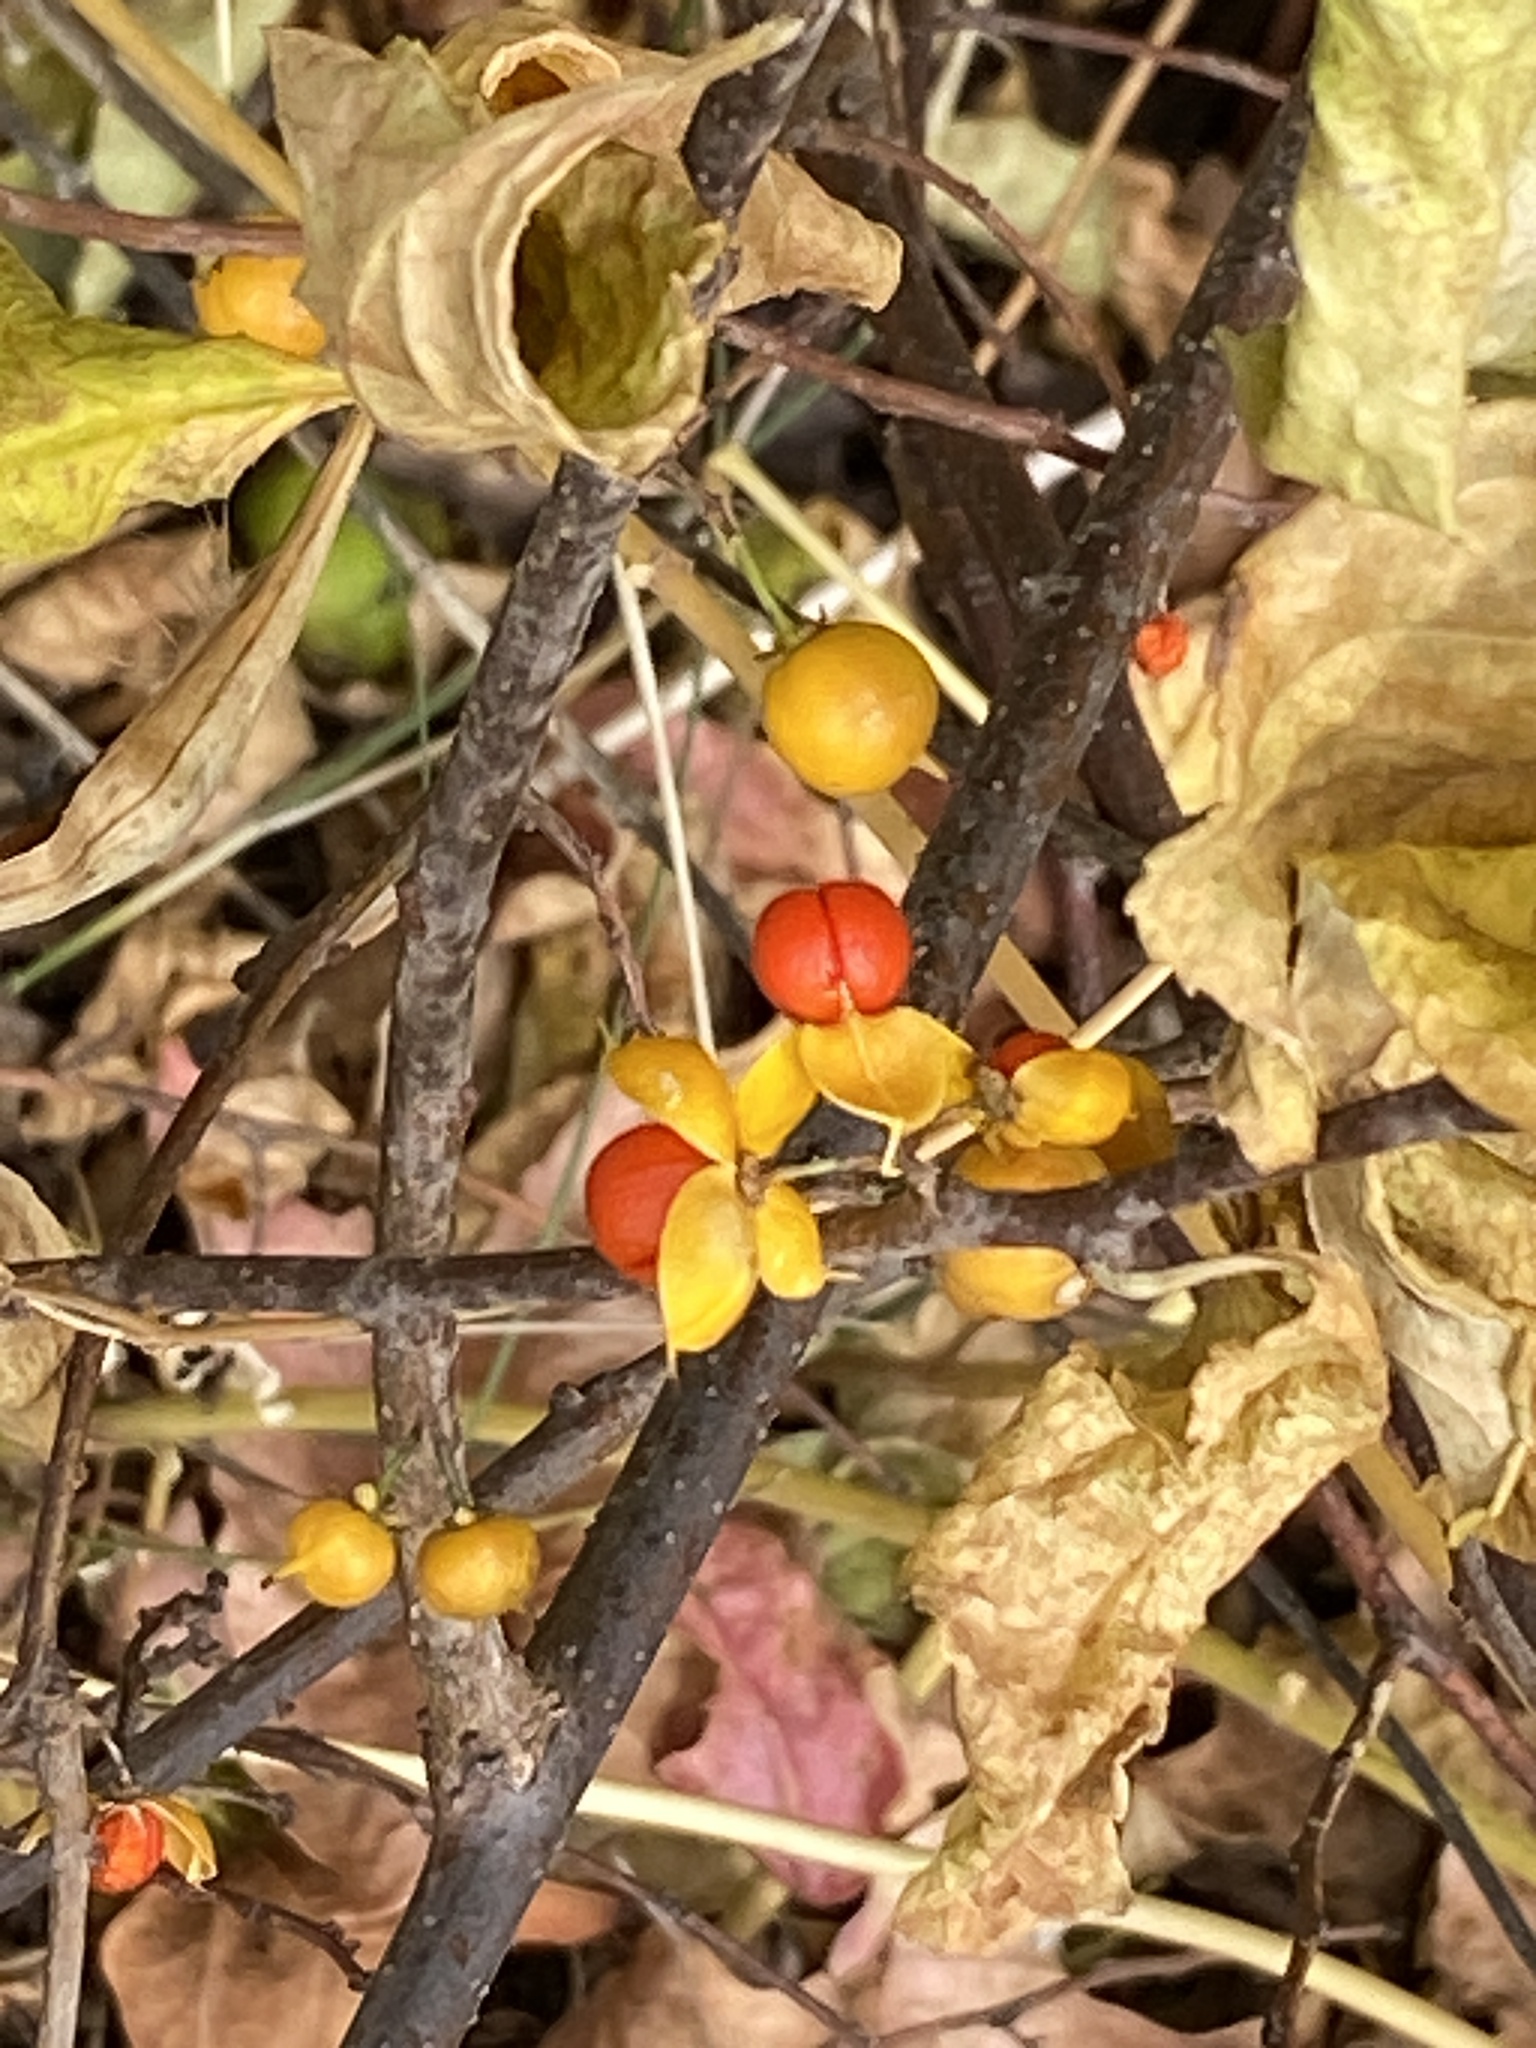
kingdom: Plantae
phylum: Tracheophyta
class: Magnoliopsida
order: Celastrales
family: Celastraceae
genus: Celastrus
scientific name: Celastrus orbiculatus
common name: Oriental bittersweet
